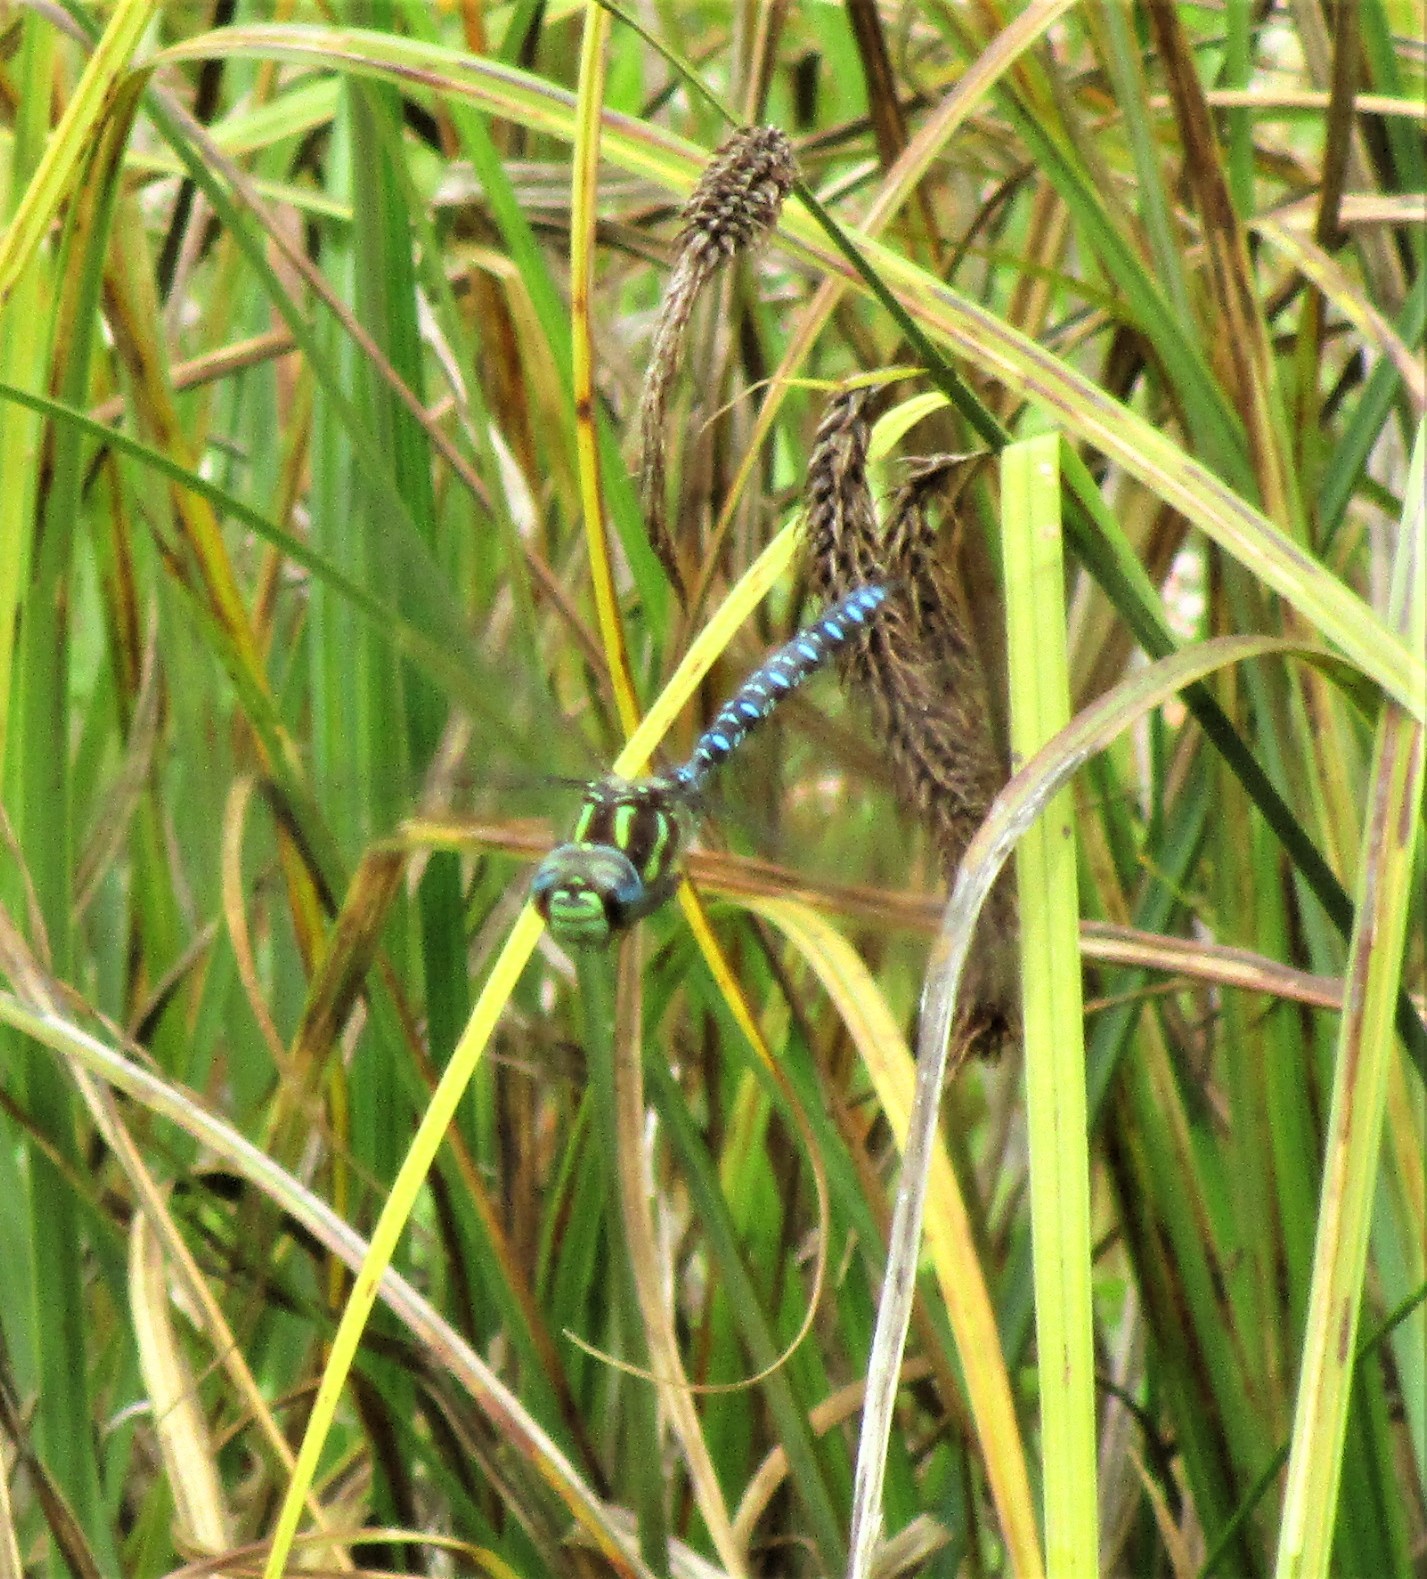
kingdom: Animalia
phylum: Arthropoda
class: Insecta
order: Odonata
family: Aeshnidae
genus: Aeshna
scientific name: Aeshna palmata
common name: Paddle-tailed darner
